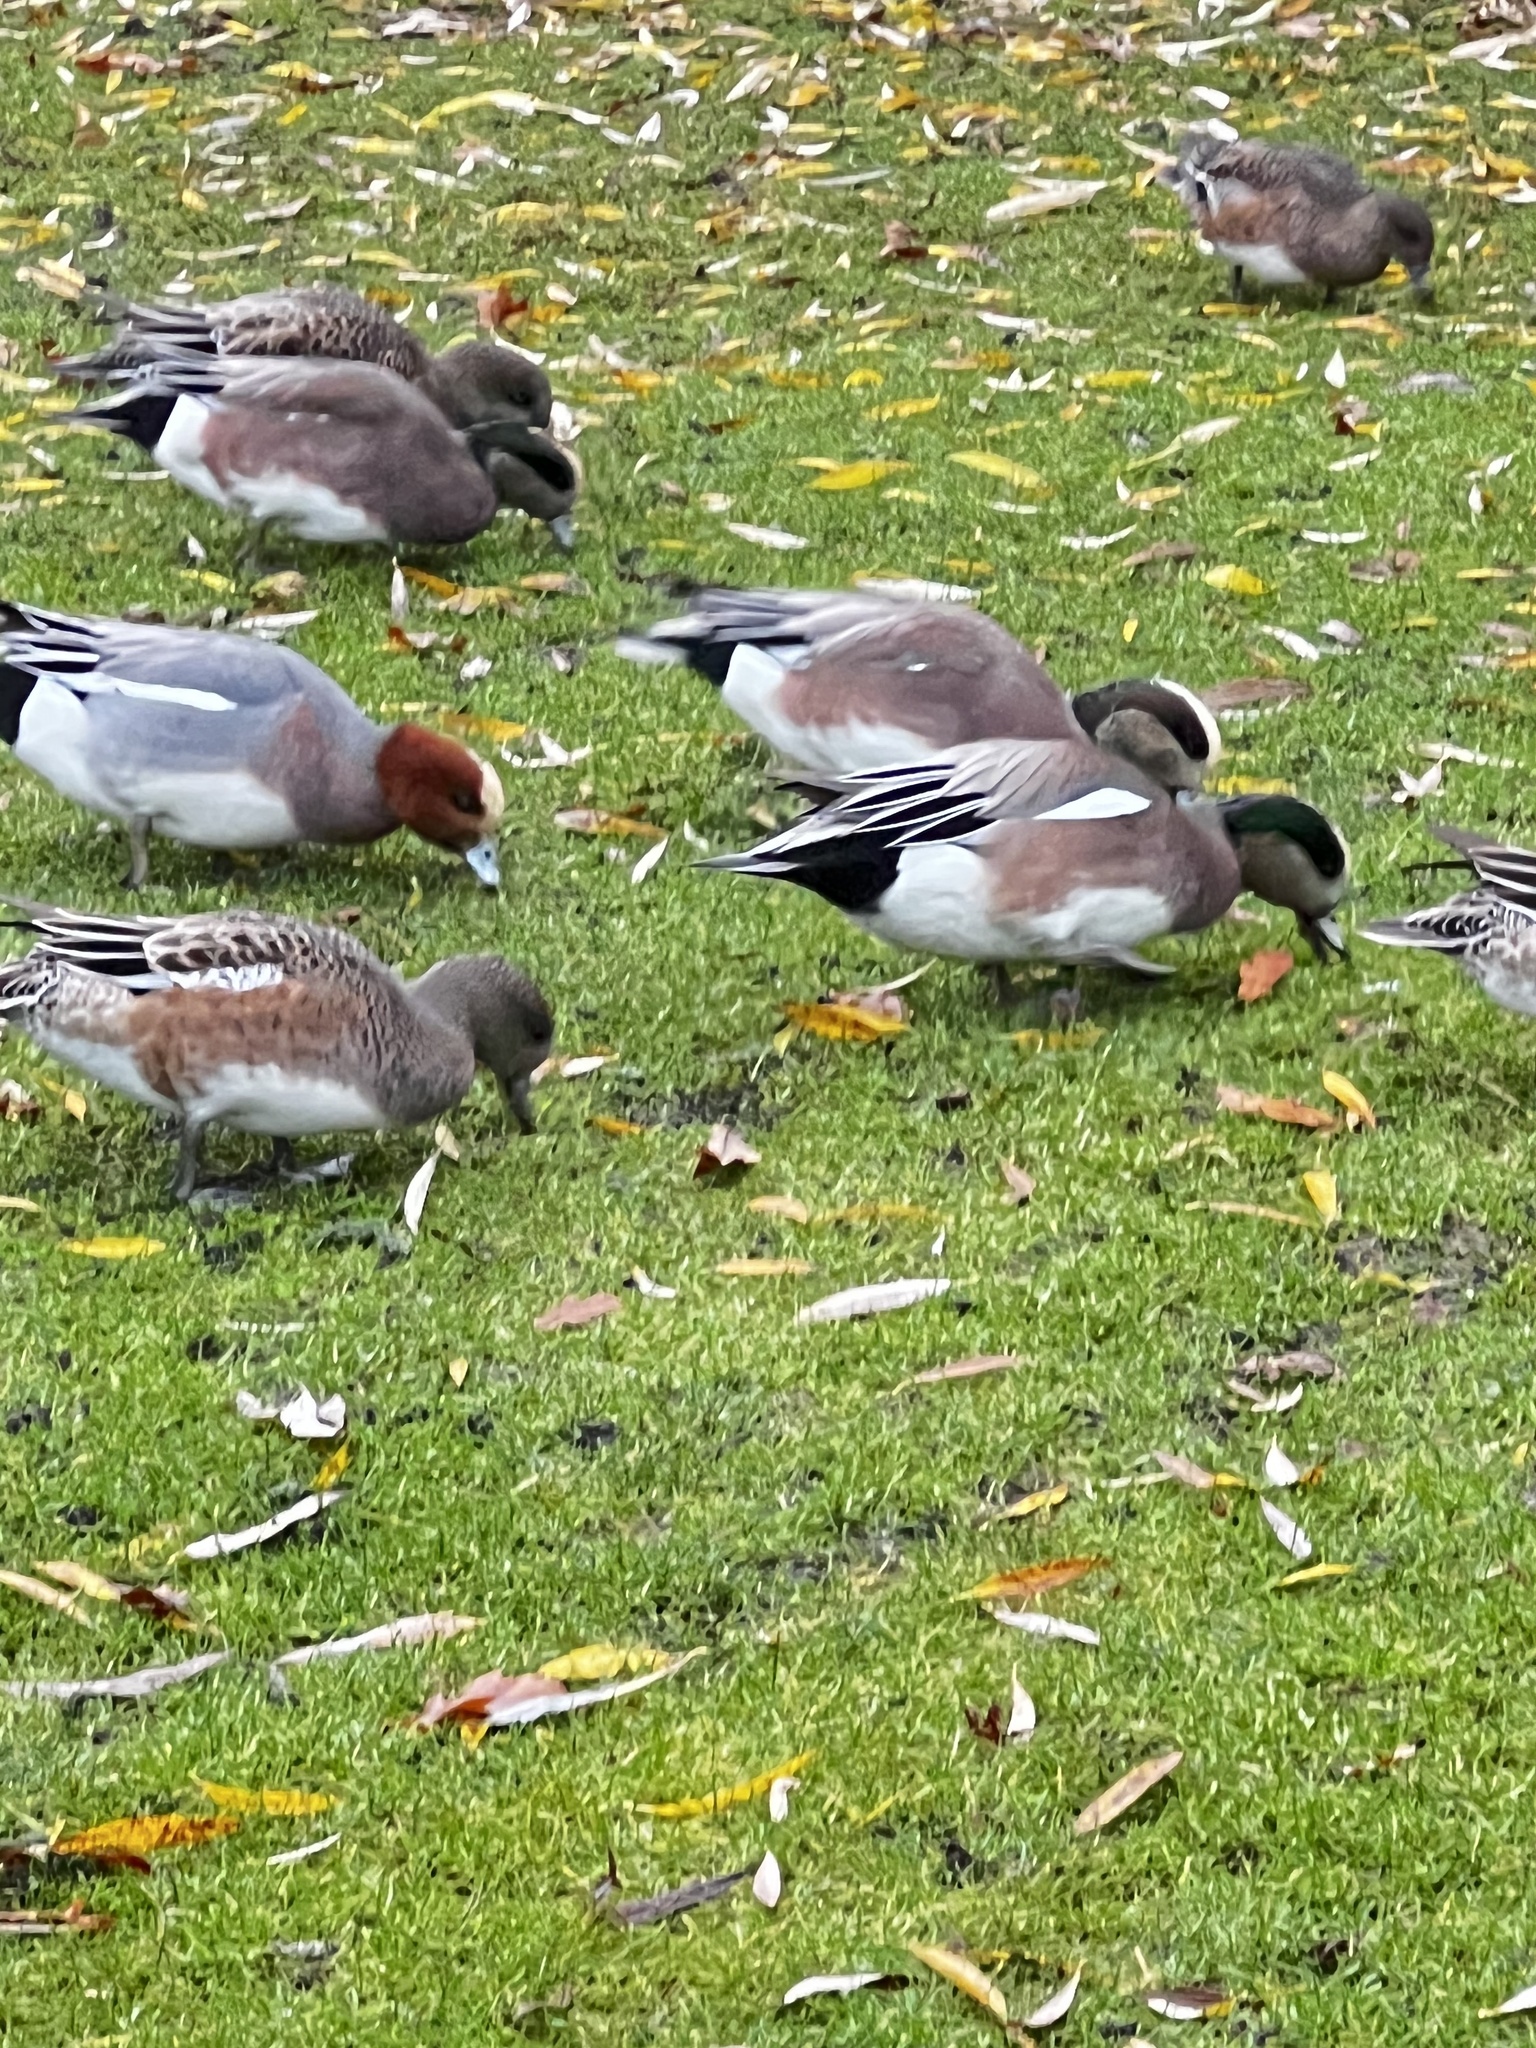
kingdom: Animalia
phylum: Chordata
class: Aves
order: Anseriformes
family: Anatidae
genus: Mareca
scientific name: Mareca penelope
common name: Eurasian wigeon
